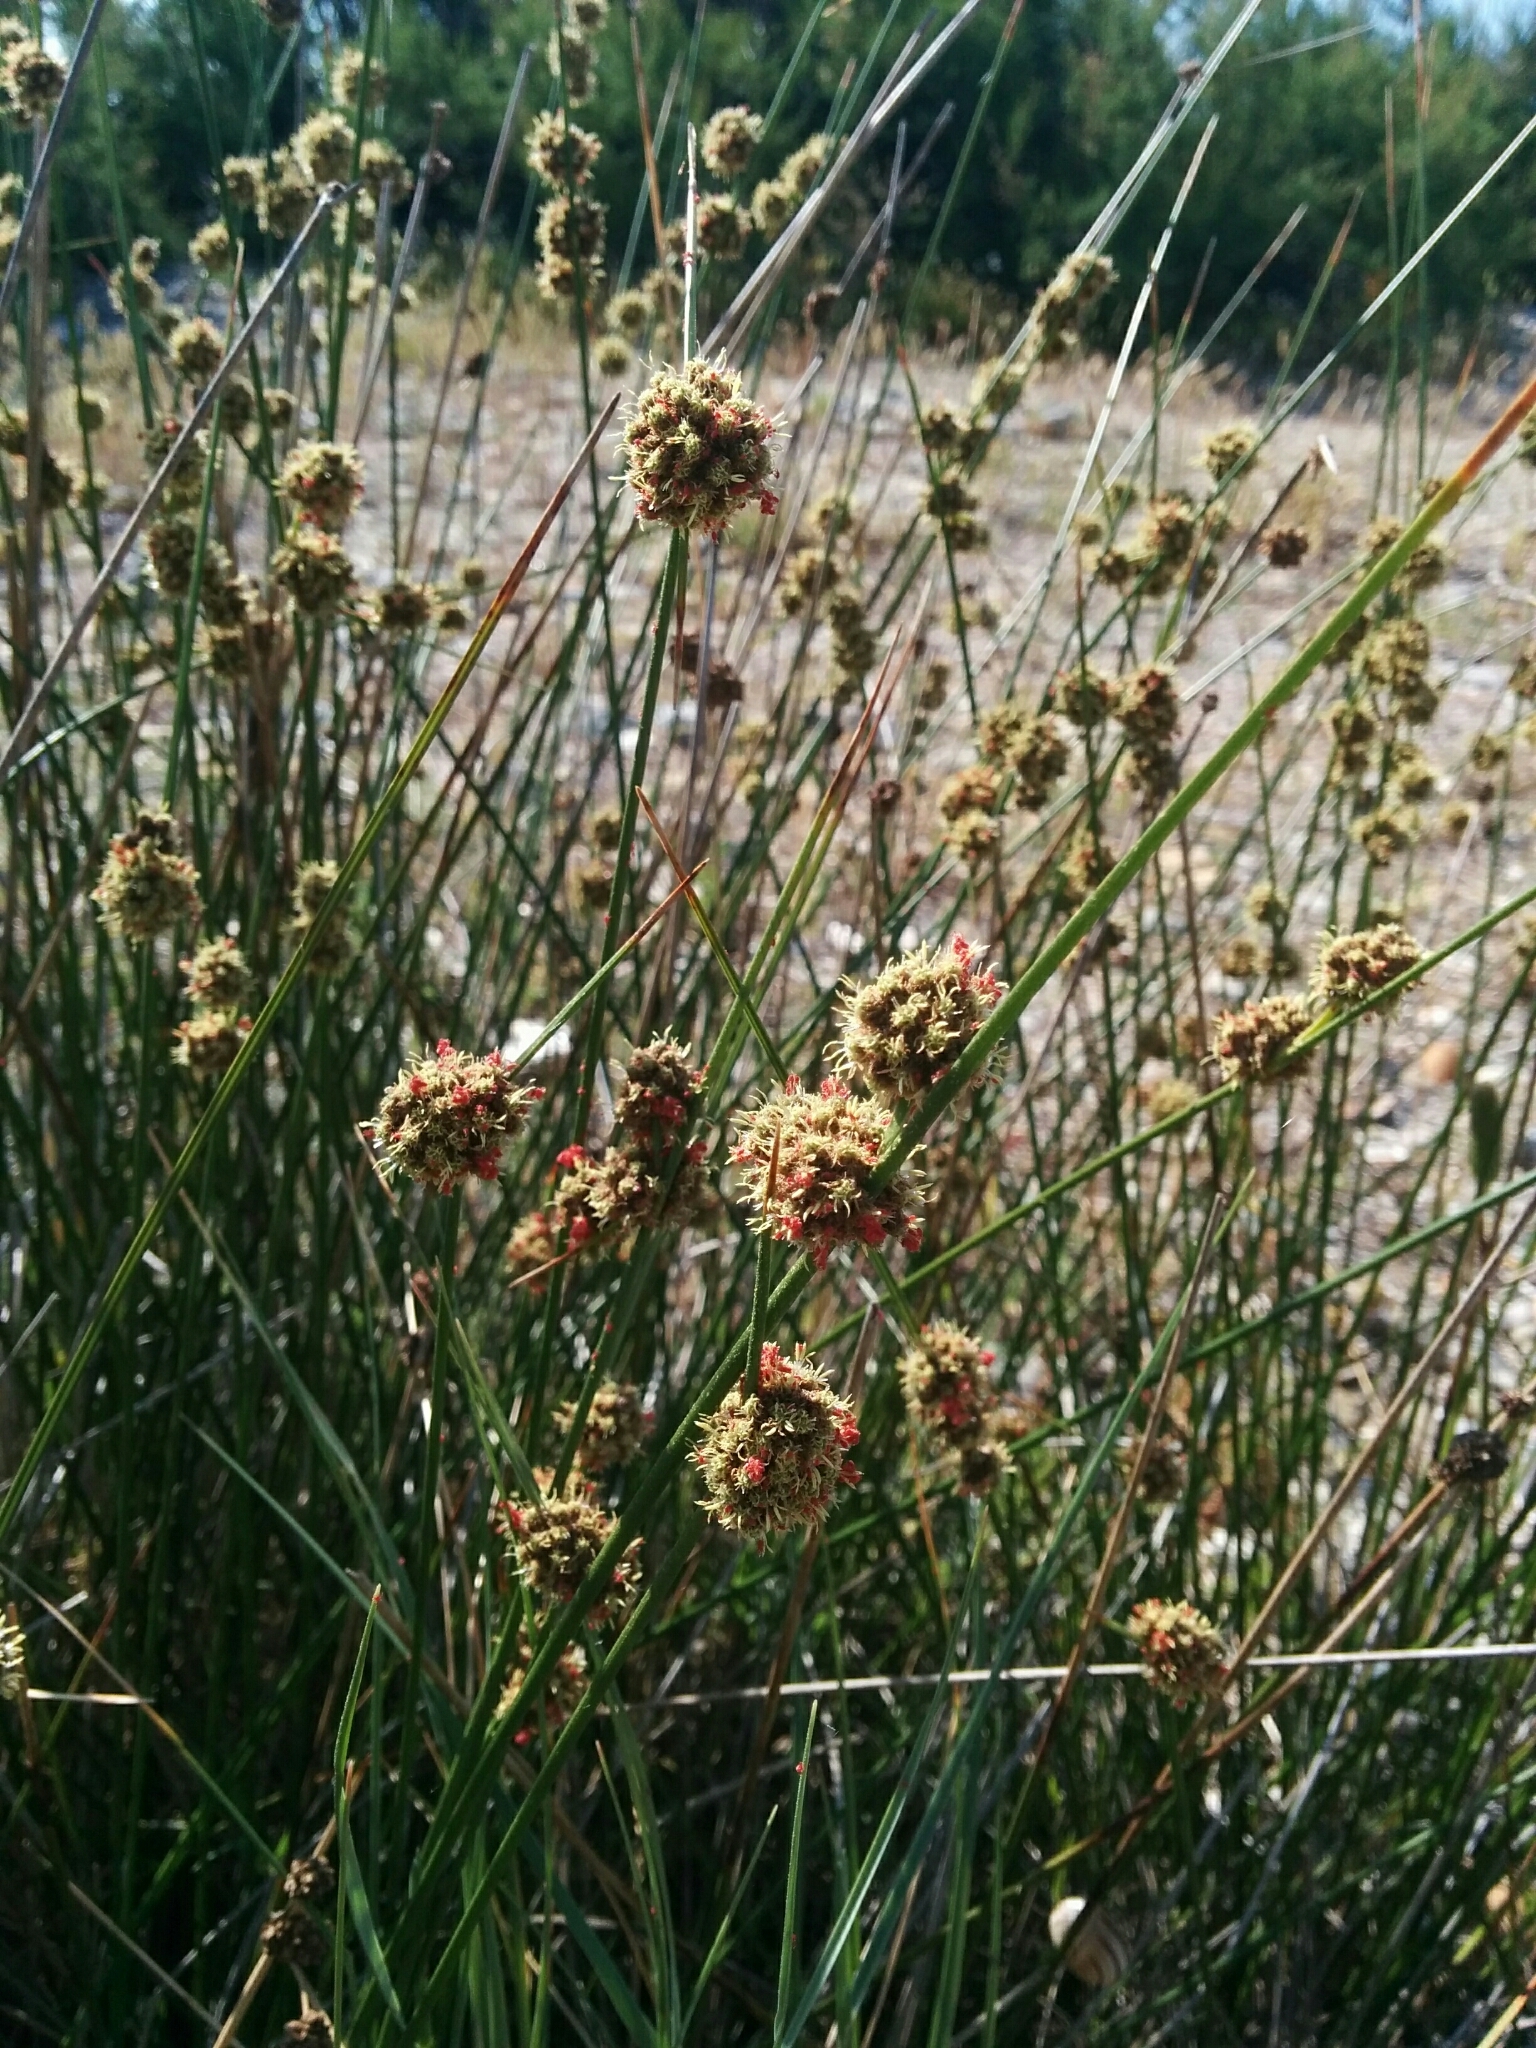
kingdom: Plantae
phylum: Tracheophyta
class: Liliopsida
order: Poales
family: Cyperaceae
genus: Scirpoides
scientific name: Scirpoides holoschoenus
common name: Round-headed club-rush
